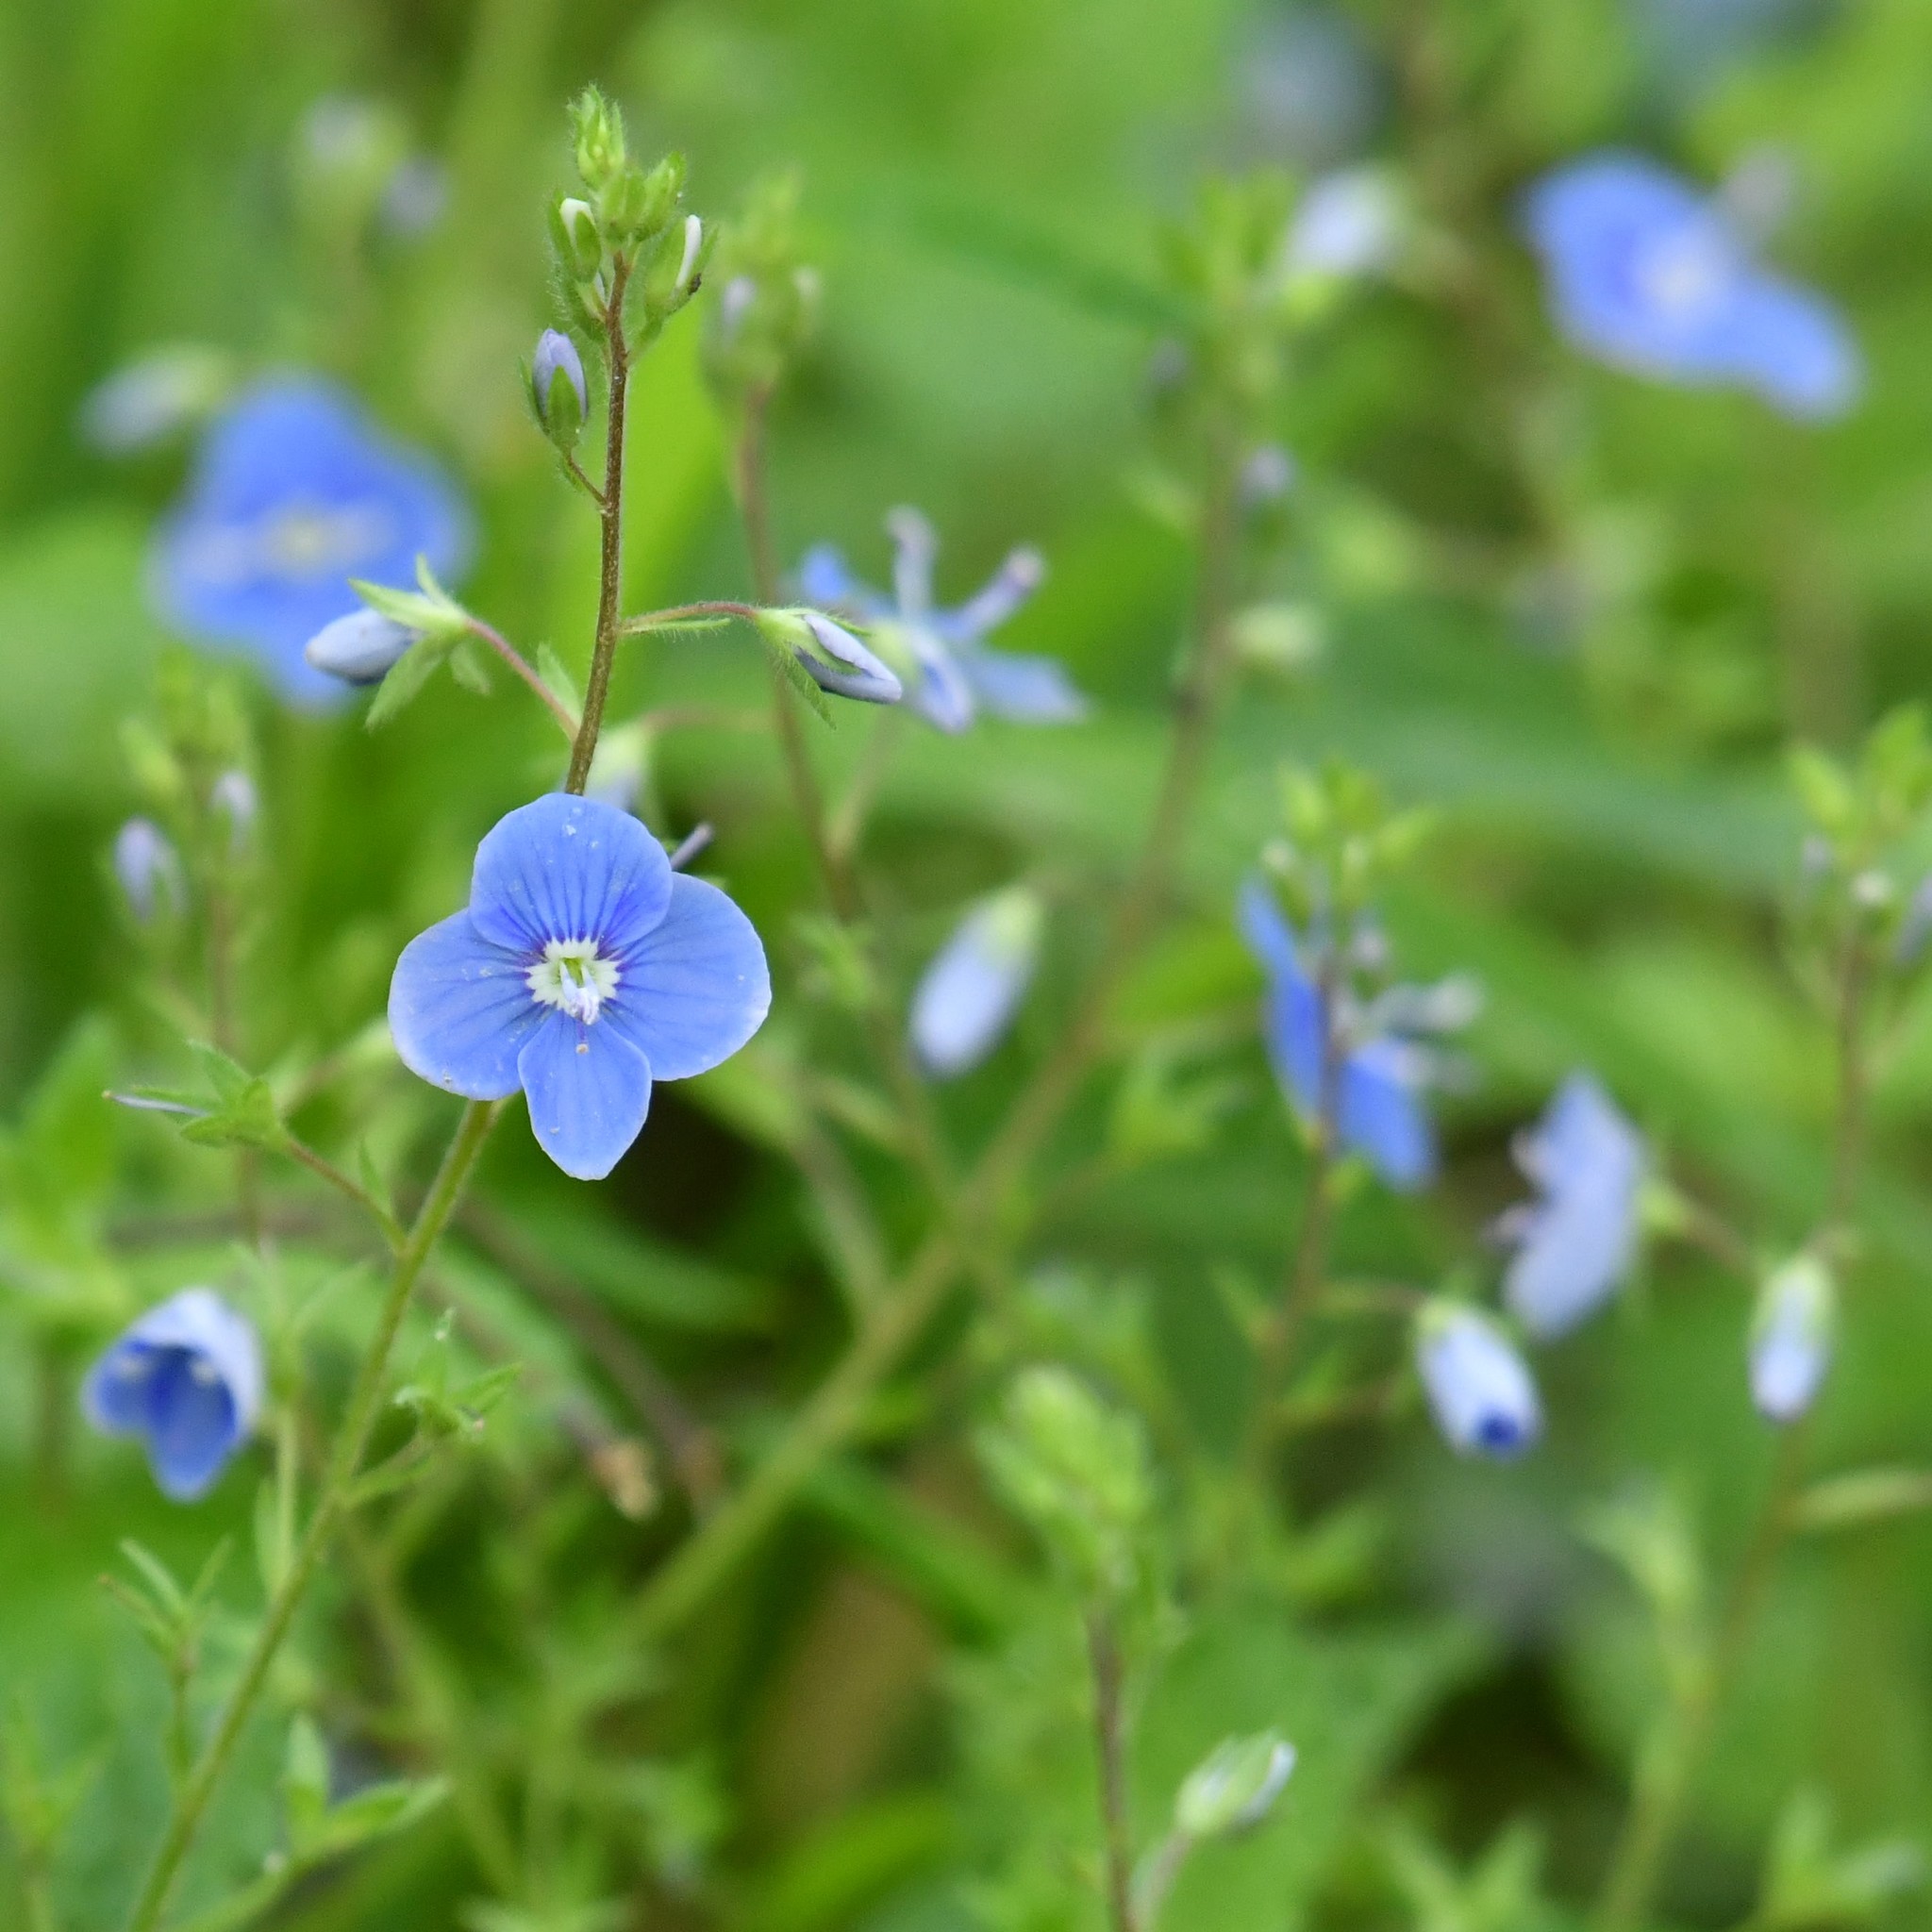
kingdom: Plantae
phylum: Tracheophyta
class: Magnoliopsida
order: Lamiales
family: Plantaginaceae
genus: Veronica
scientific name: Veronica chamaedrys
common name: Germander speedwell
